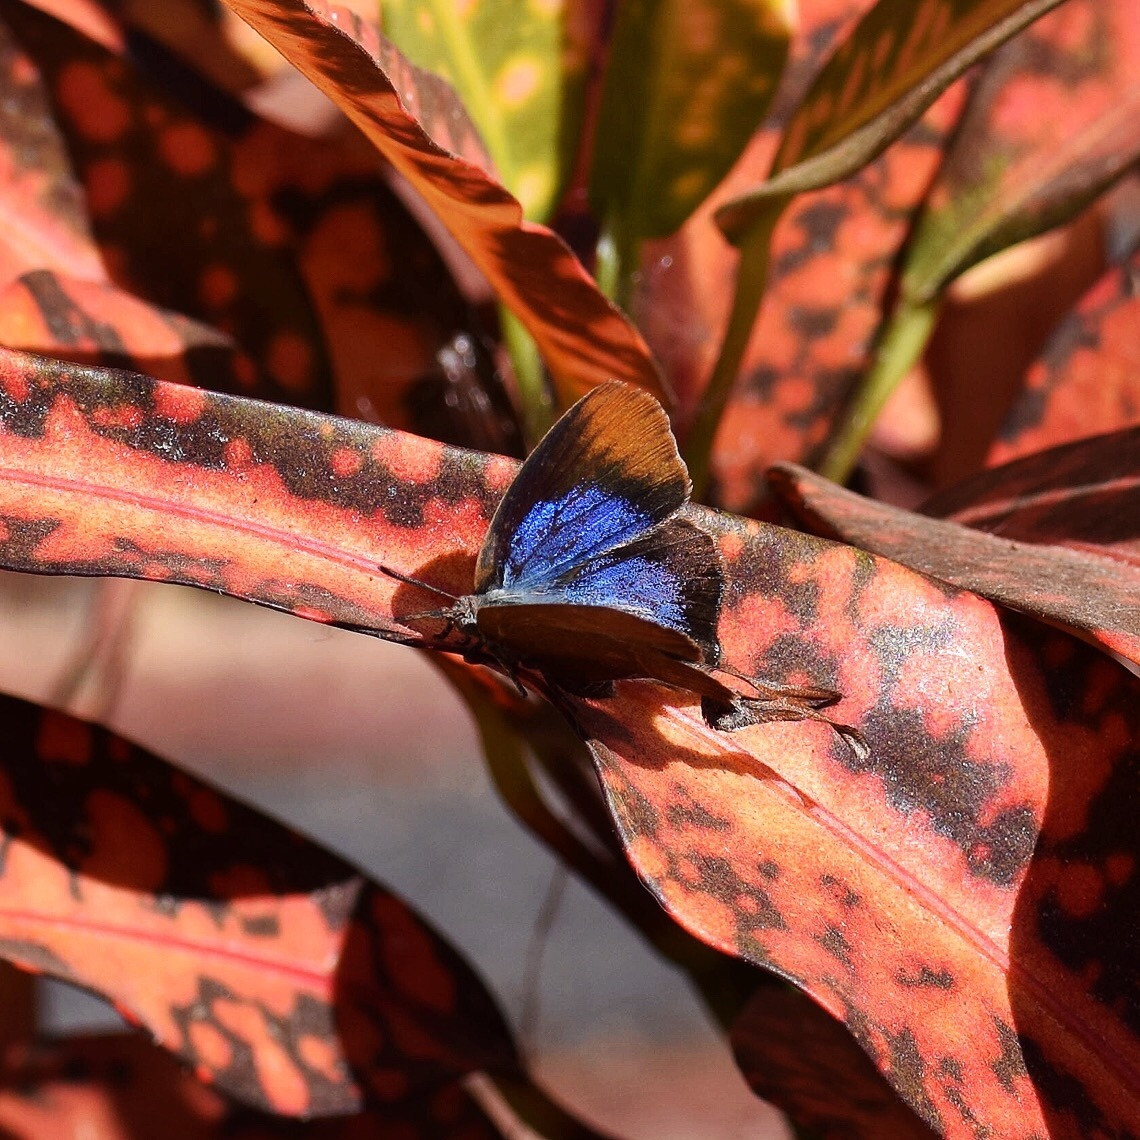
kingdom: Animalia
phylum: Arthropoda
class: Insecta
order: Lepidoptera
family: Lycaenidae
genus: Myrina
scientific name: Myrina silenus
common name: Amber fig-tree blue
